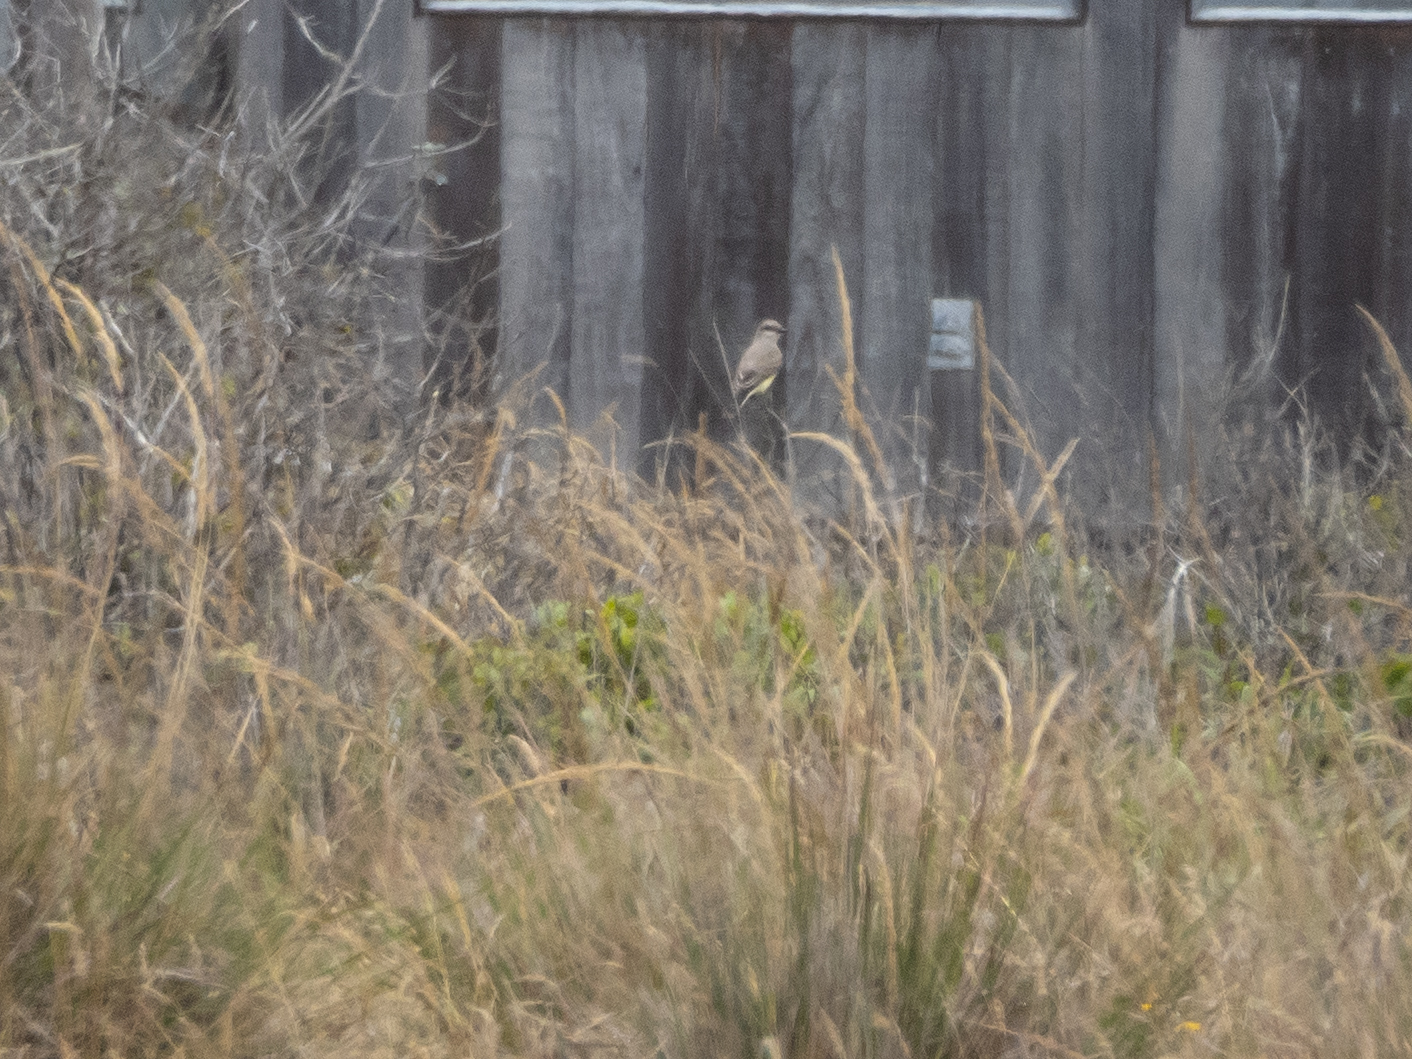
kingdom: Animalia
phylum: Chordata
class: Aves
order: Passeriformes
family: Tyrannidae
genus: Tyrannus
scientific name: Tyrannus verticalis
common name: Western kingbird
